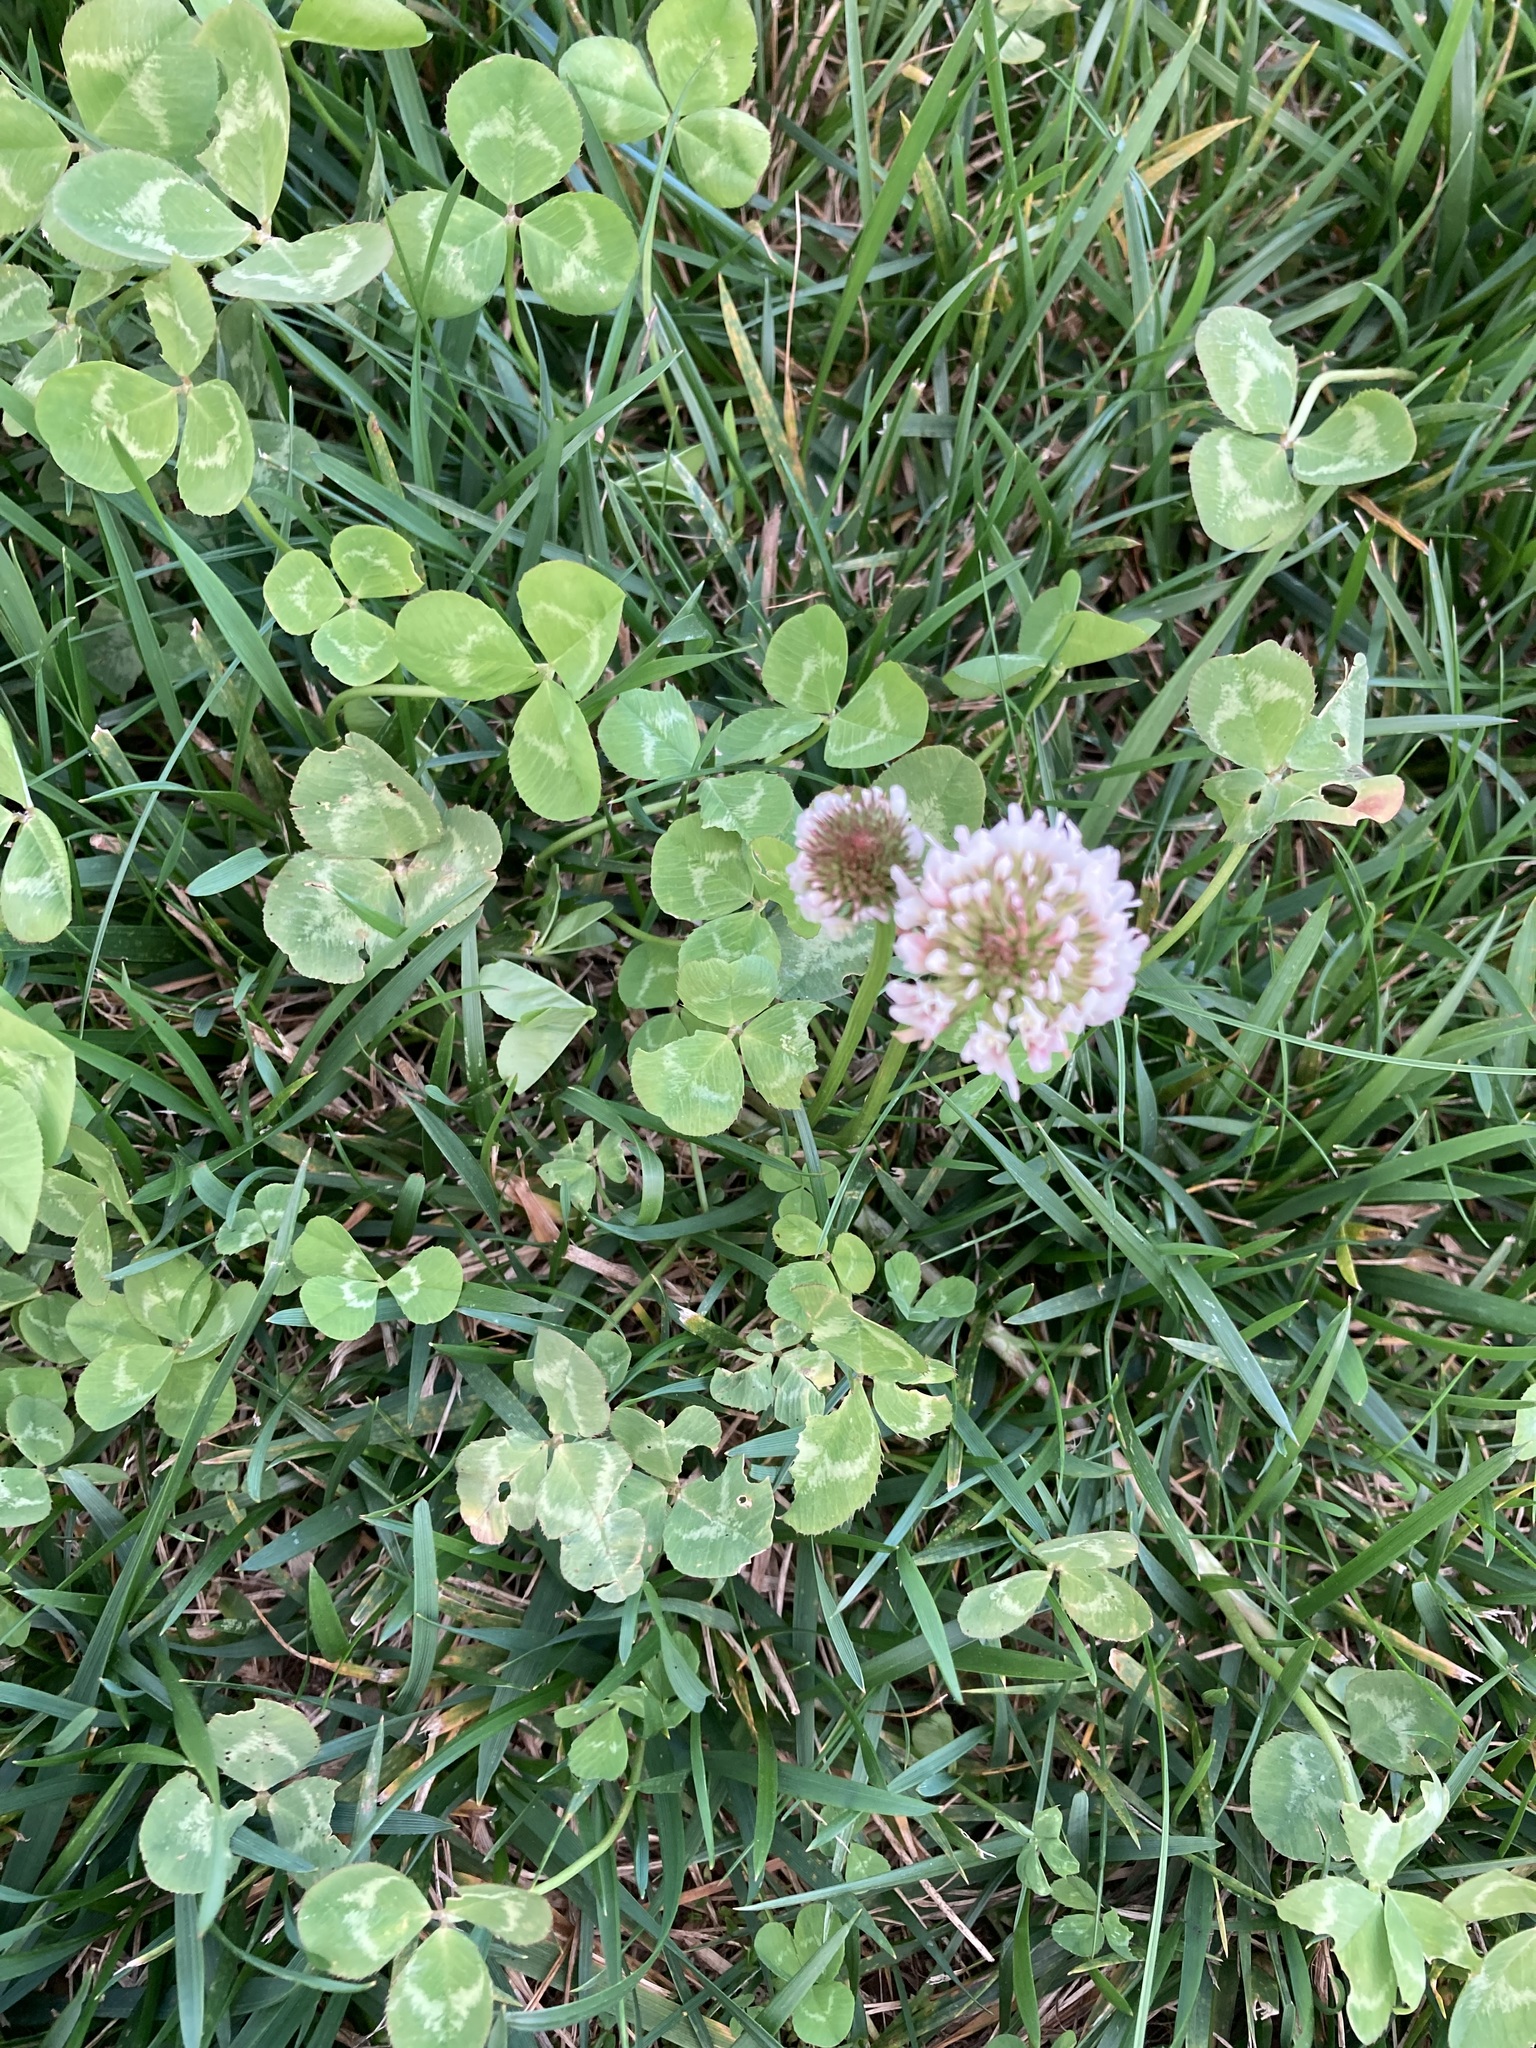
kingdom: Plantae
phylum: Tracheophyta
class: Magnoliopsida
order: Fabales
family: Fabaceae
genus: Trifolium
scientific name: Trifolium repens
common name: White clover
